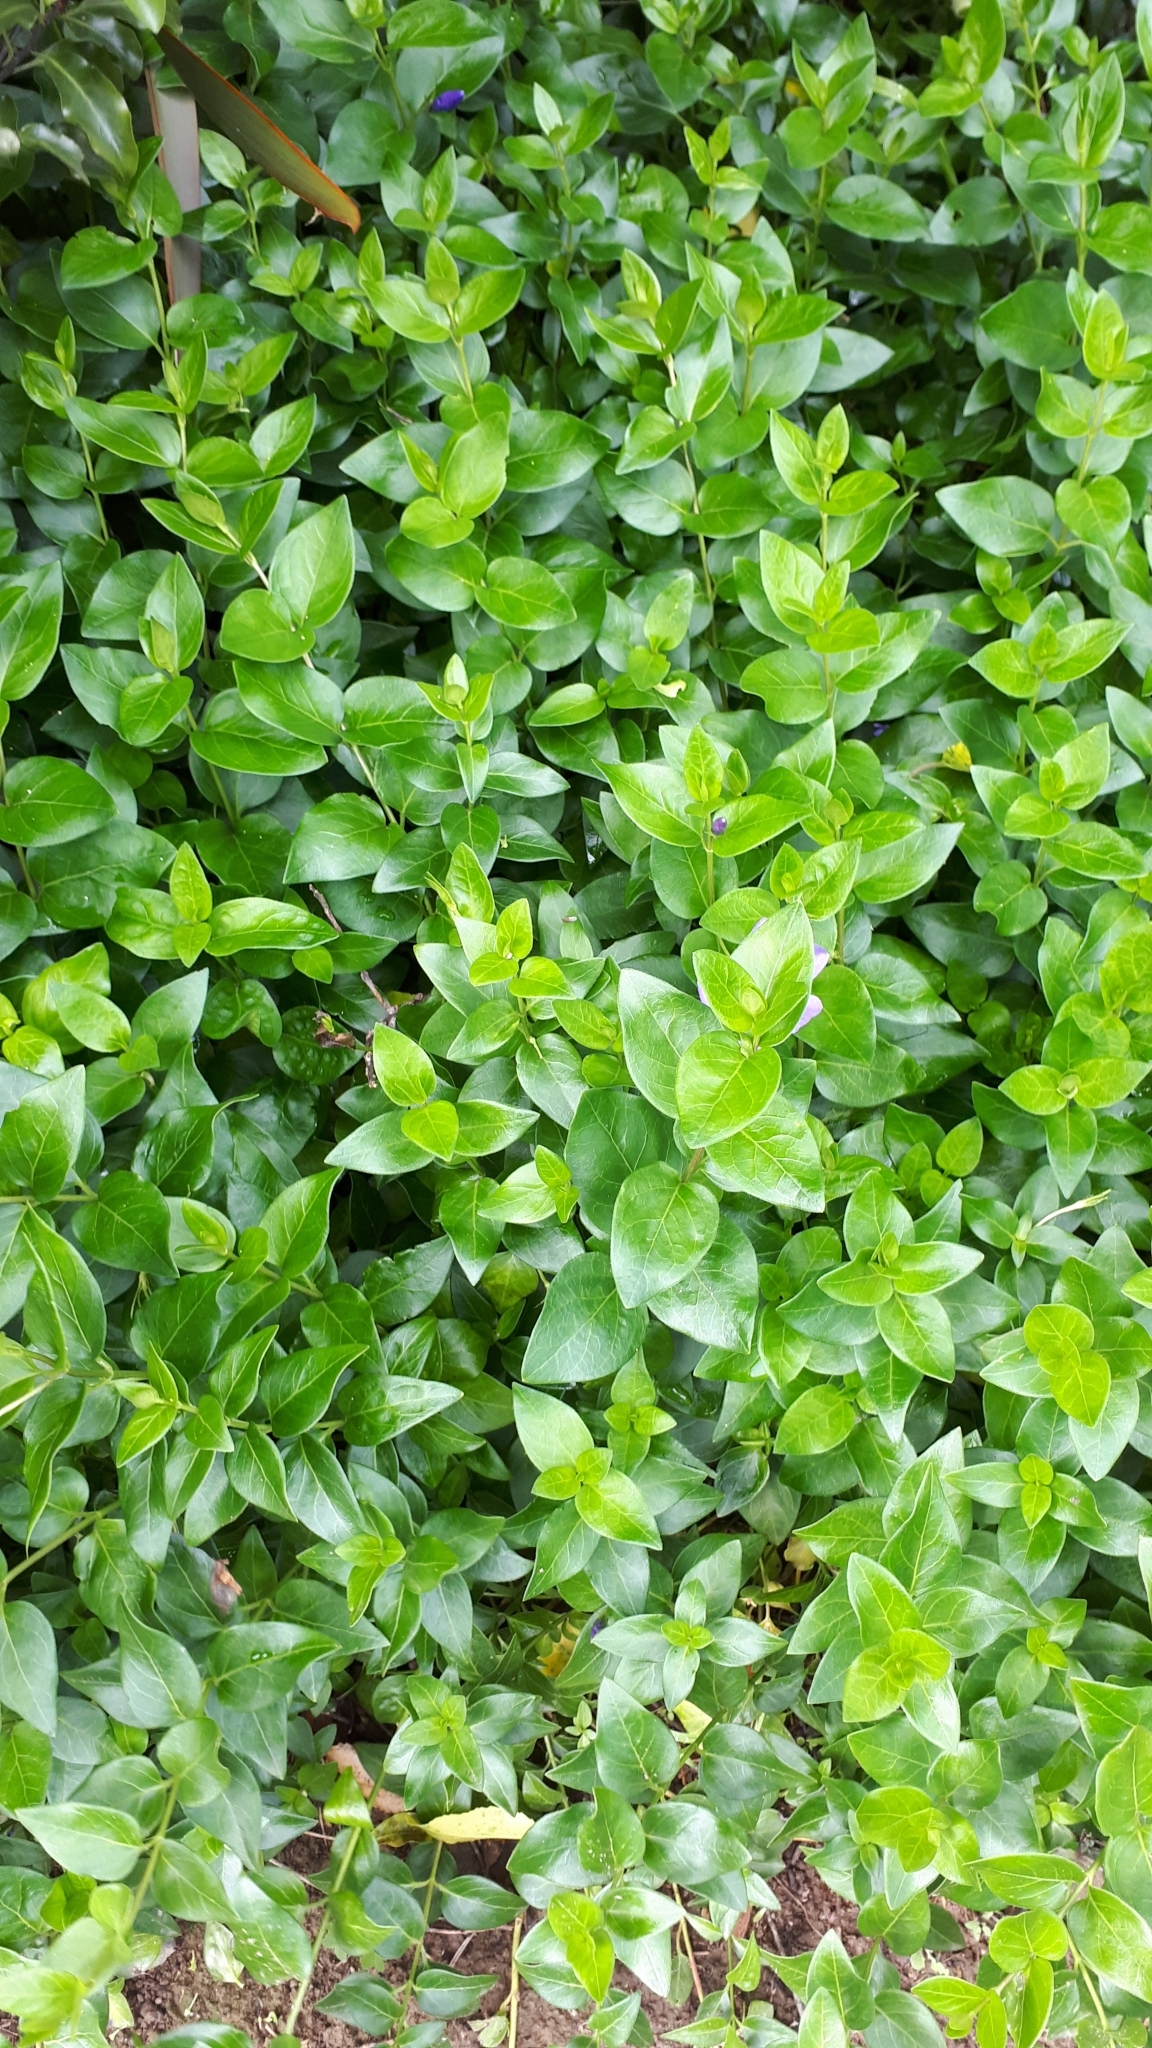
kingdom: Plantae
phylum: Tracheophyta
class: Magnoliopsida
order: Gentianales
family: Apocynaceae
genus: Vinca
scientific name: Vinca major
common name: Greater periwinkle
